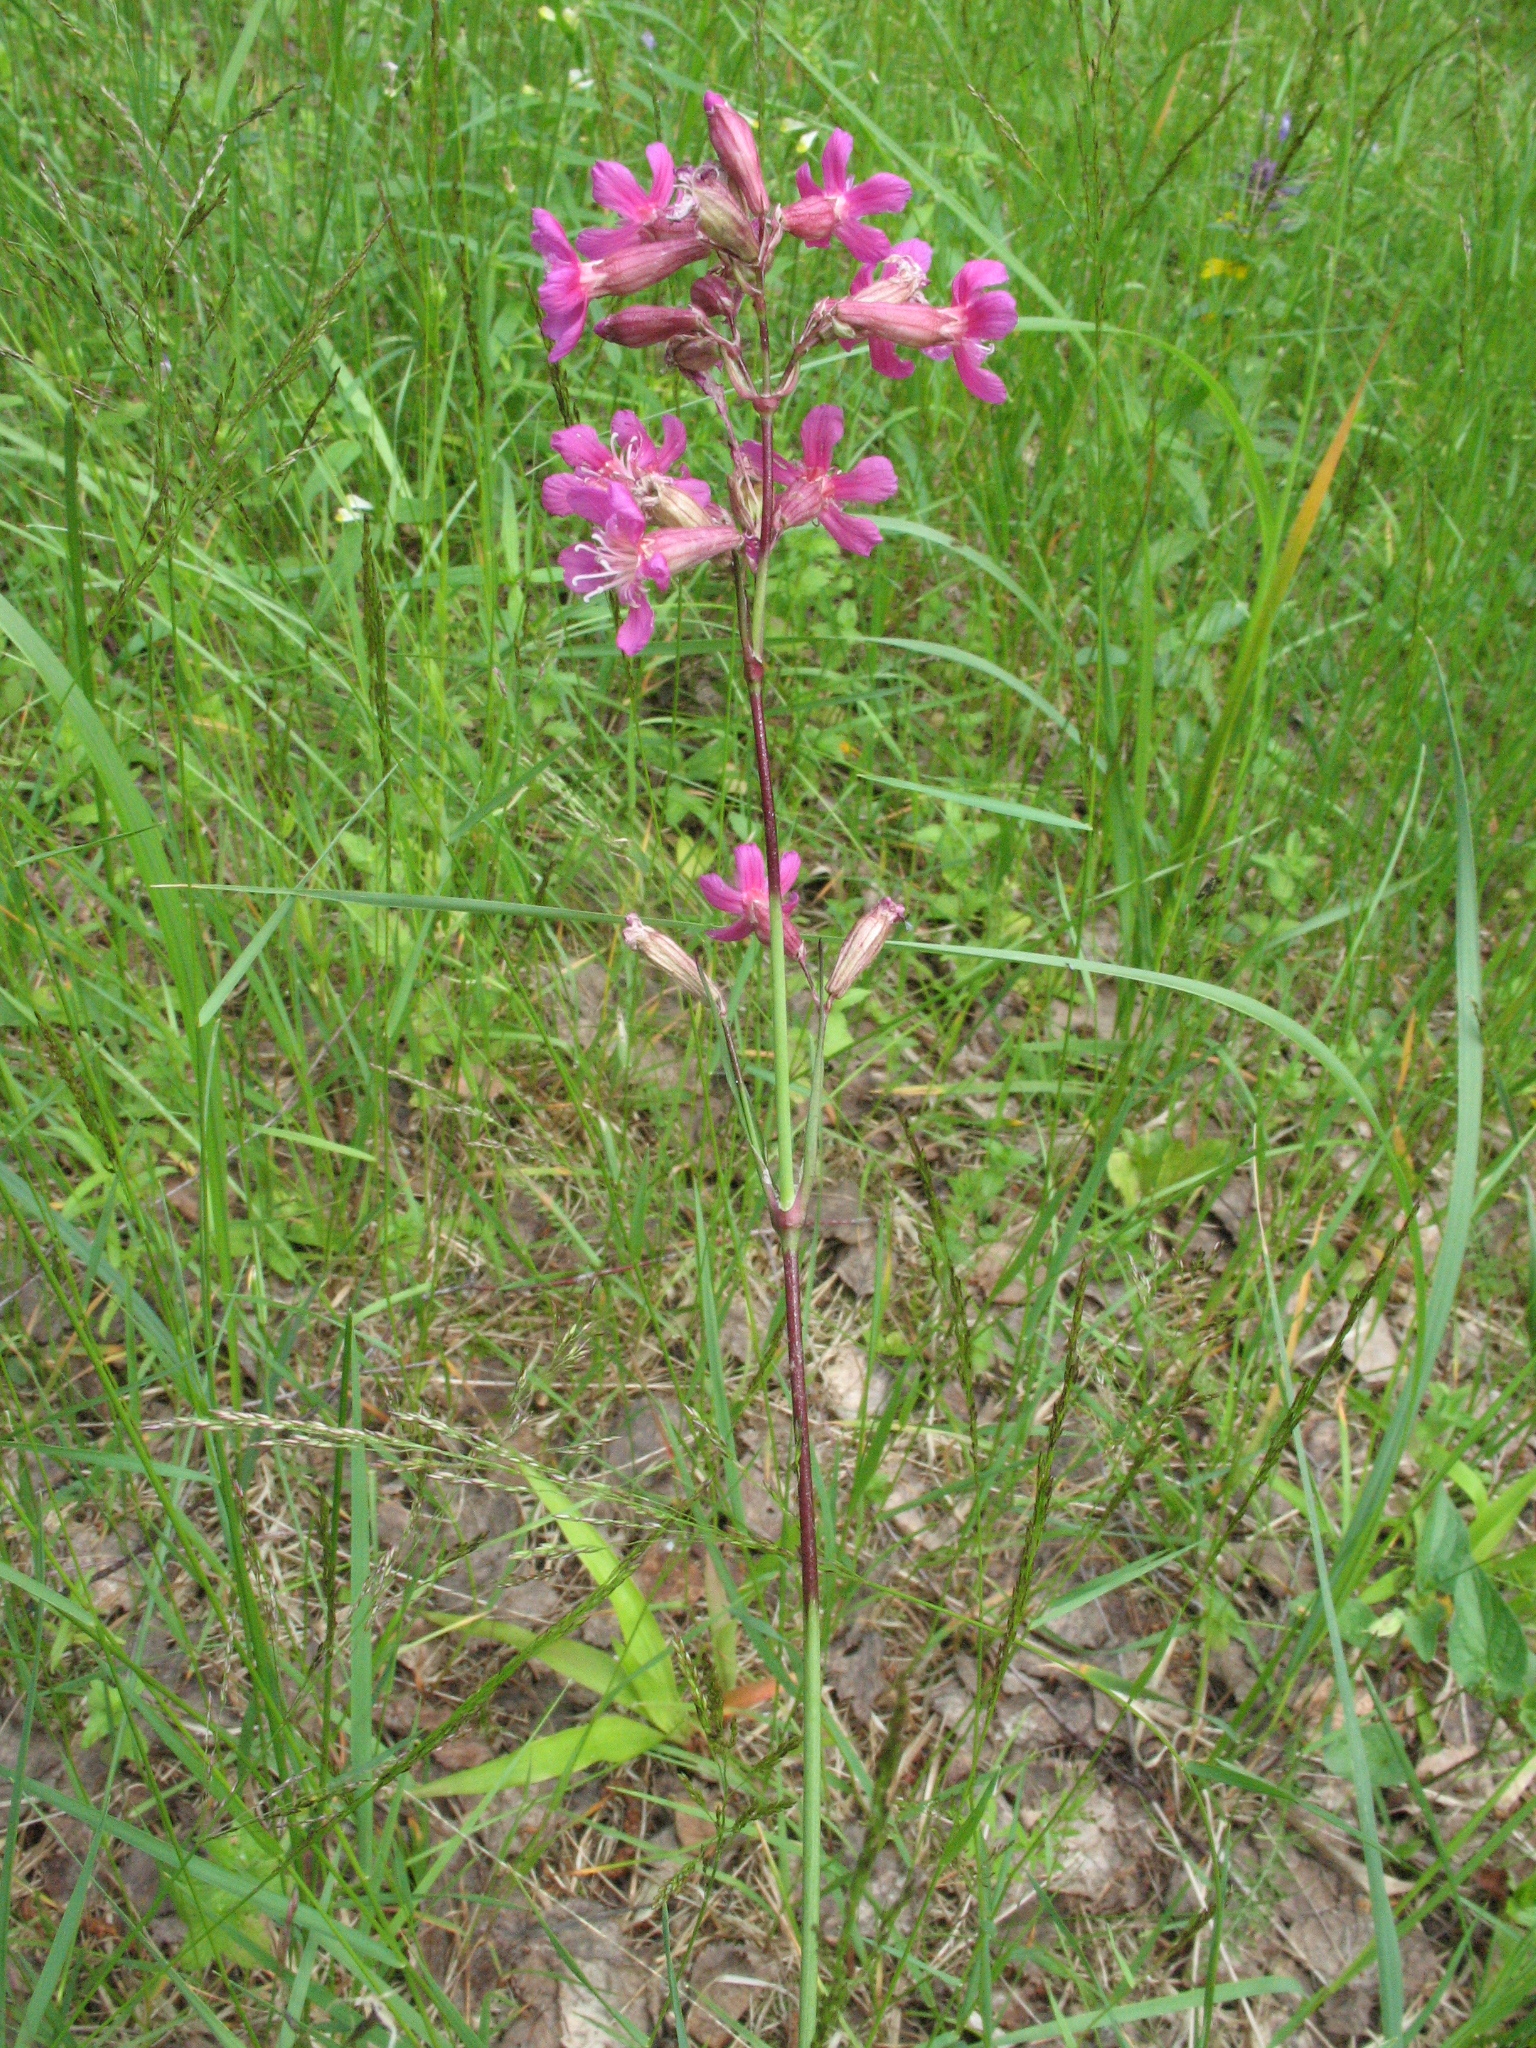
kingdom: Plantae
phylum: Tracheophyta
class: Magnoliopsida
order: Caryophyllales
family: Caryophyllaceae
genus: Viscaria
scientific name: Viscaria vulgaris
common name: Clammy campion
